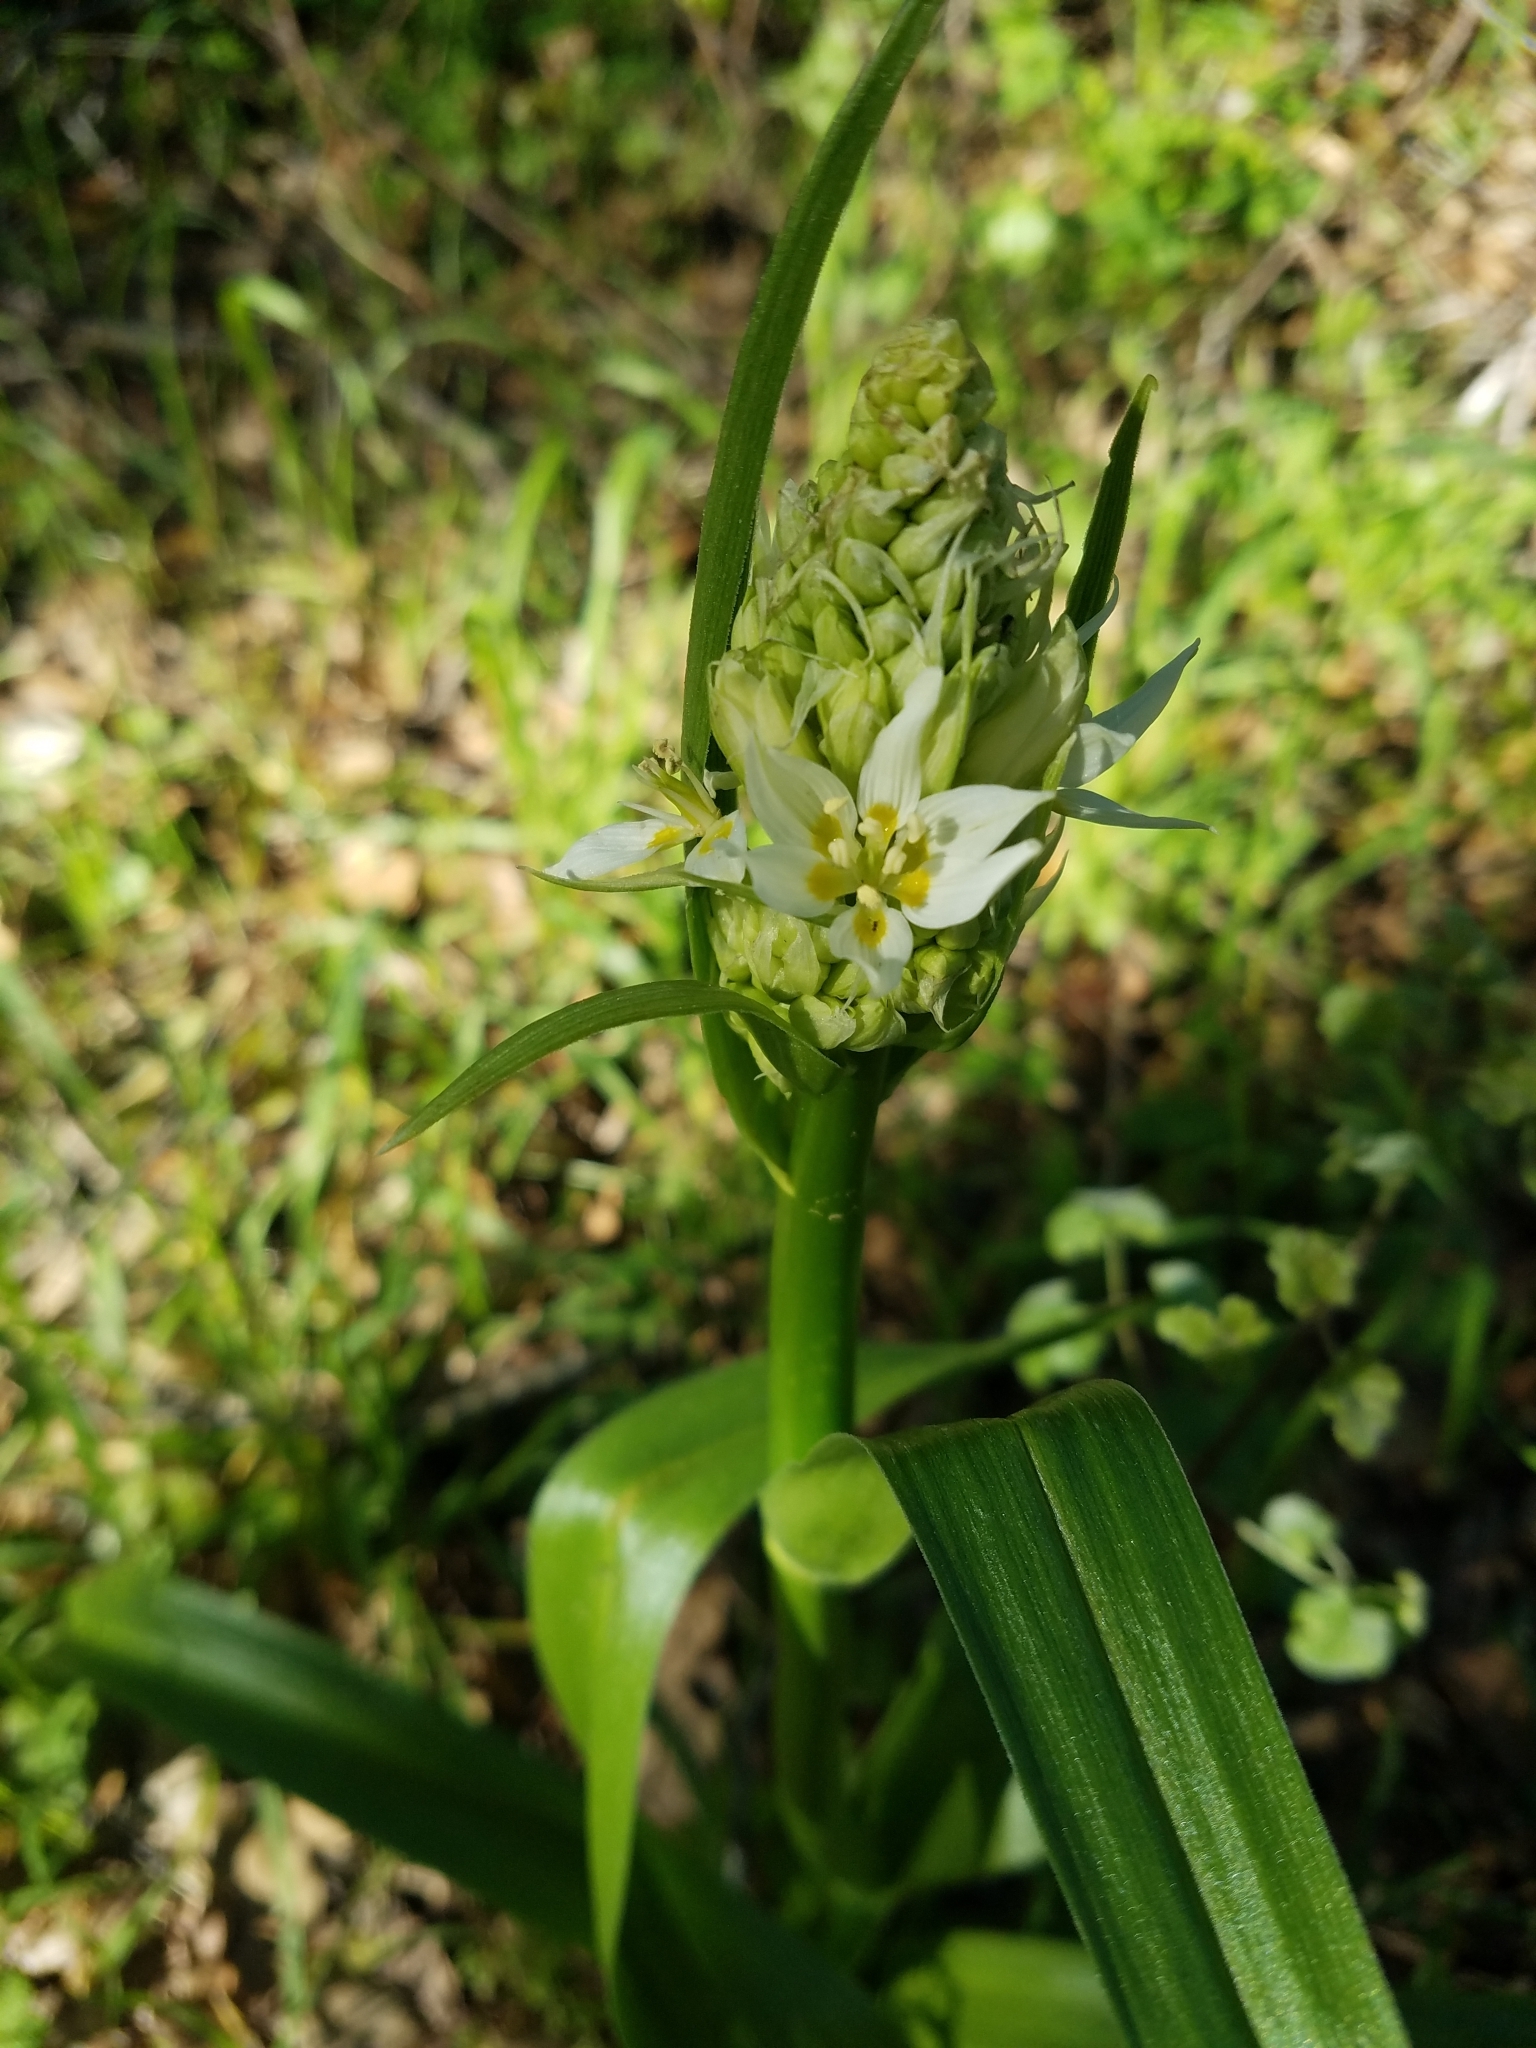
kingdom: Plantae
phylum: Tracheophyta
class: Liliopsida
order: Liliales
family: Melanthiaceae
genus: Toxicoscordion
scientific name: Toxicoscordion fremontii
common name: Fremont's death camas
